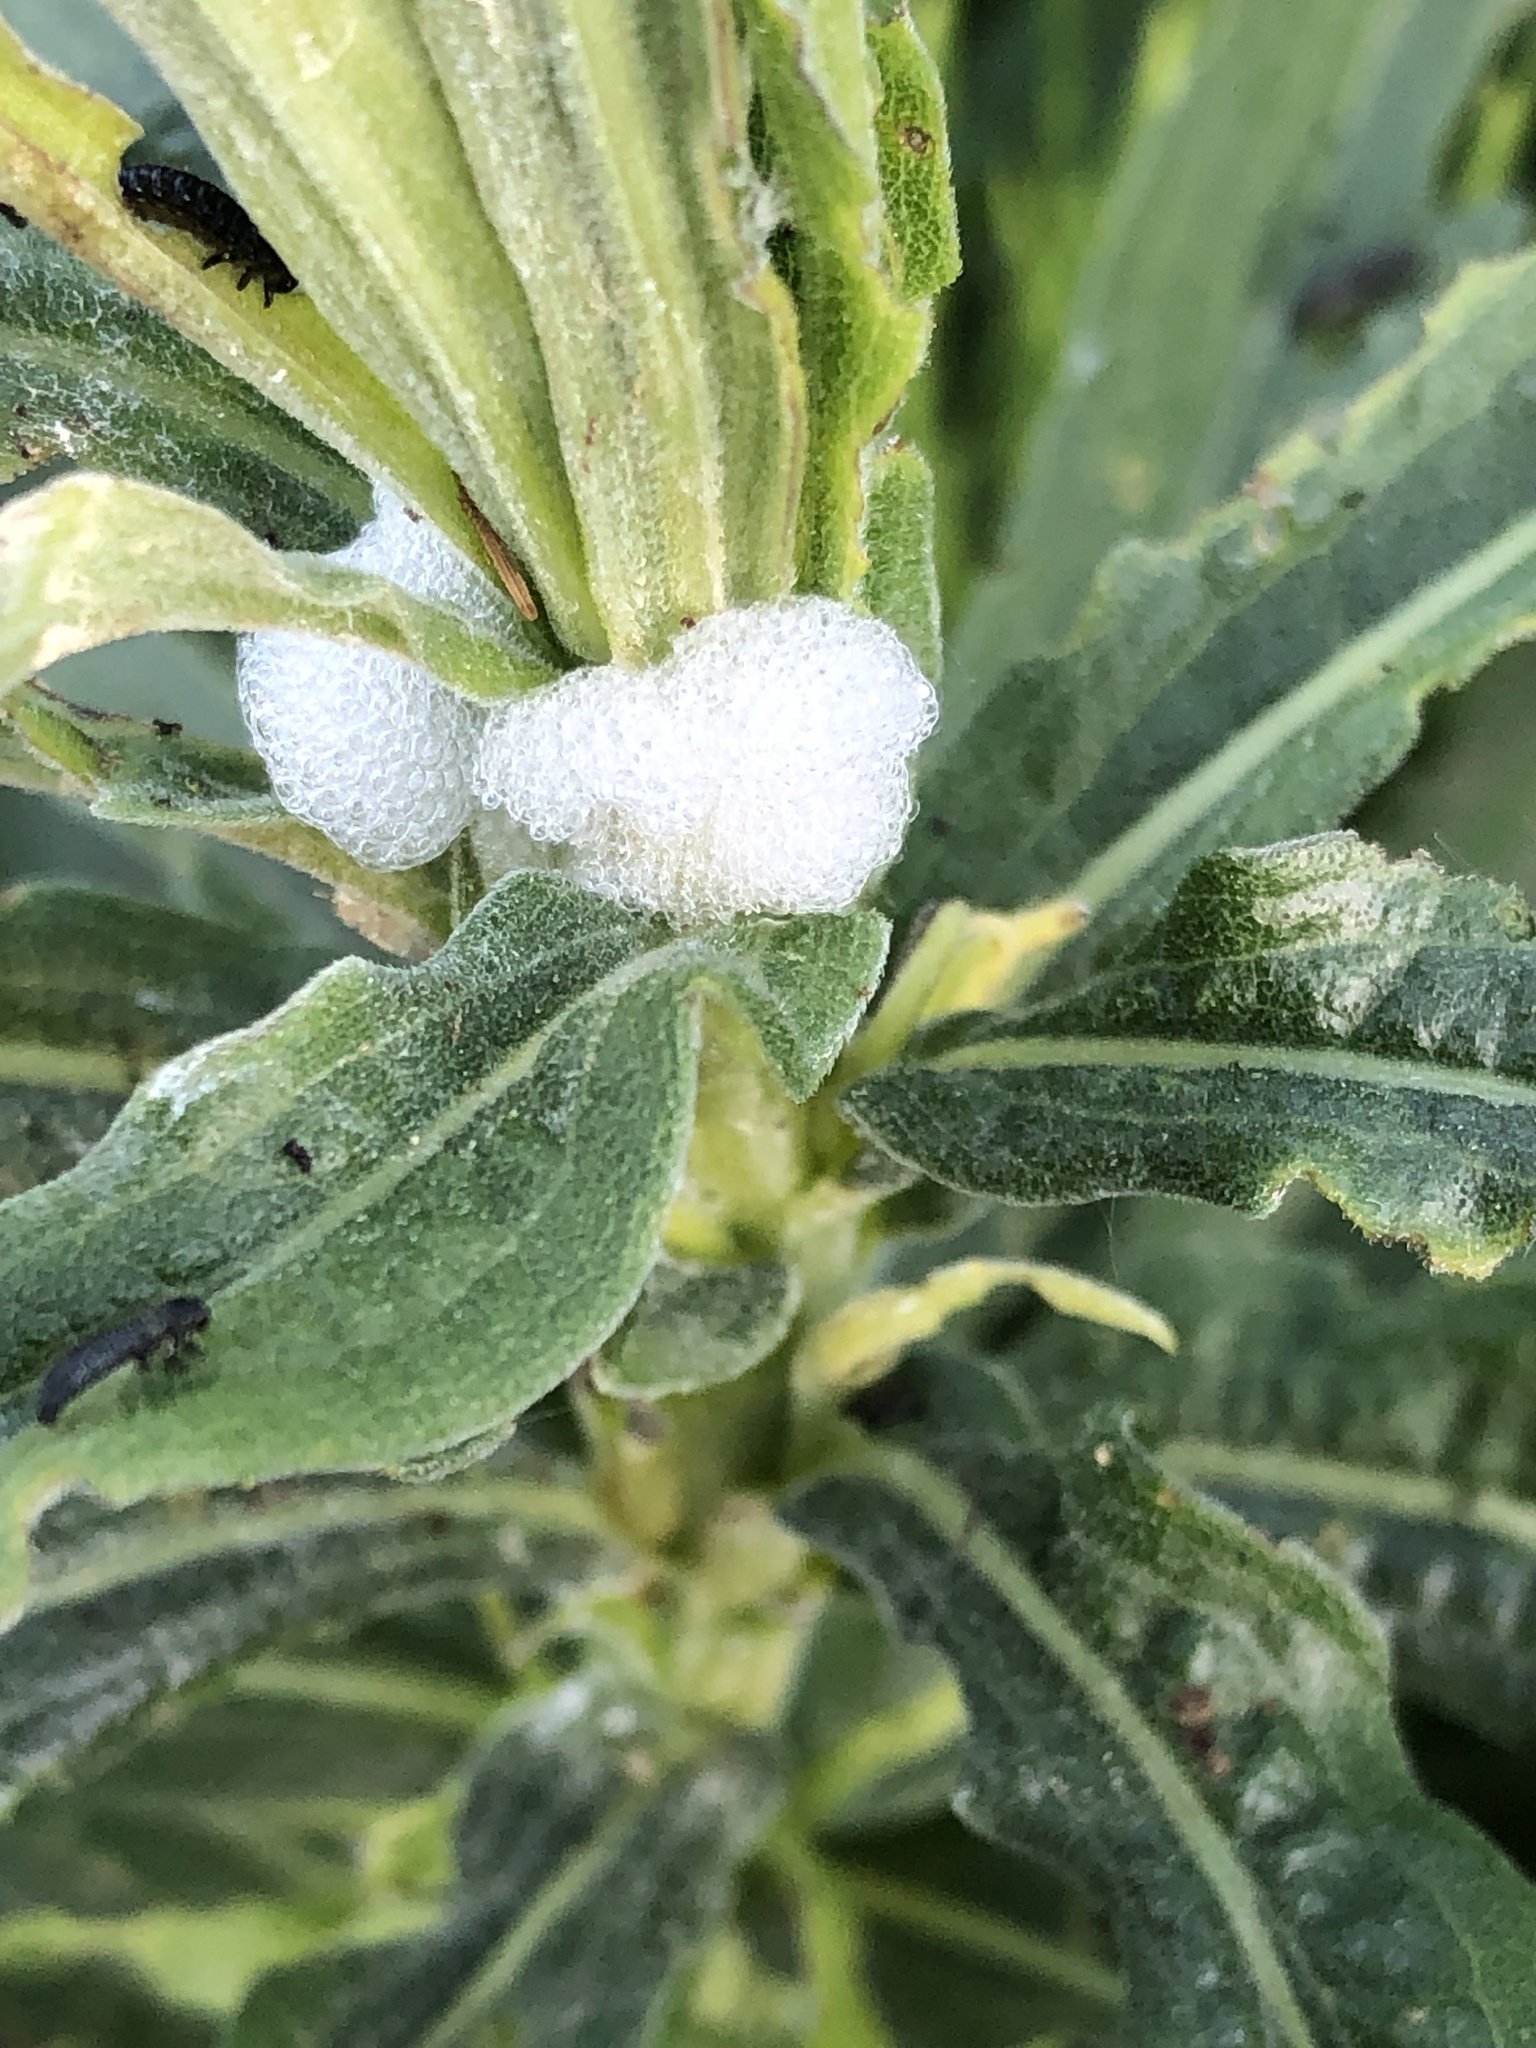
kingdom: Animalia
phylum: Arthropoda
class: Insecta
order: Hemiptera
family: Aphrophoridae
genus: Philaenus
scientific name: Philaenus spumarius
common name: Meadow spittlebug
